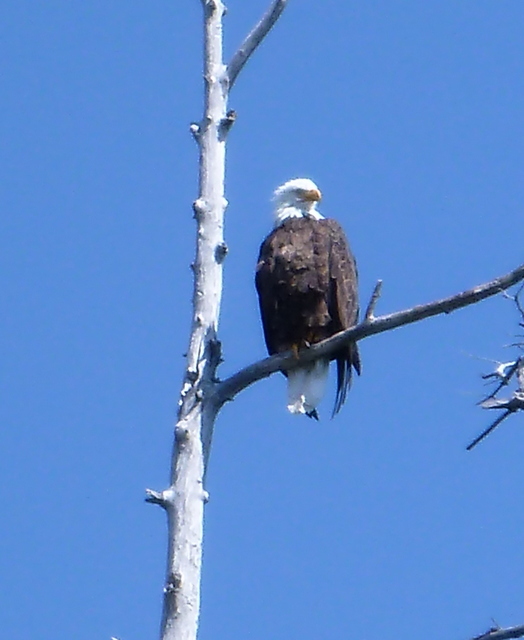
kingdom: Animalia
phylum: Chordata
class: Aves
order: Accipitriformes
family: Accipitridae
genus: Haliaeetus
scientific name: Haliaeetus leucocephalus
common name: Bald eagle
